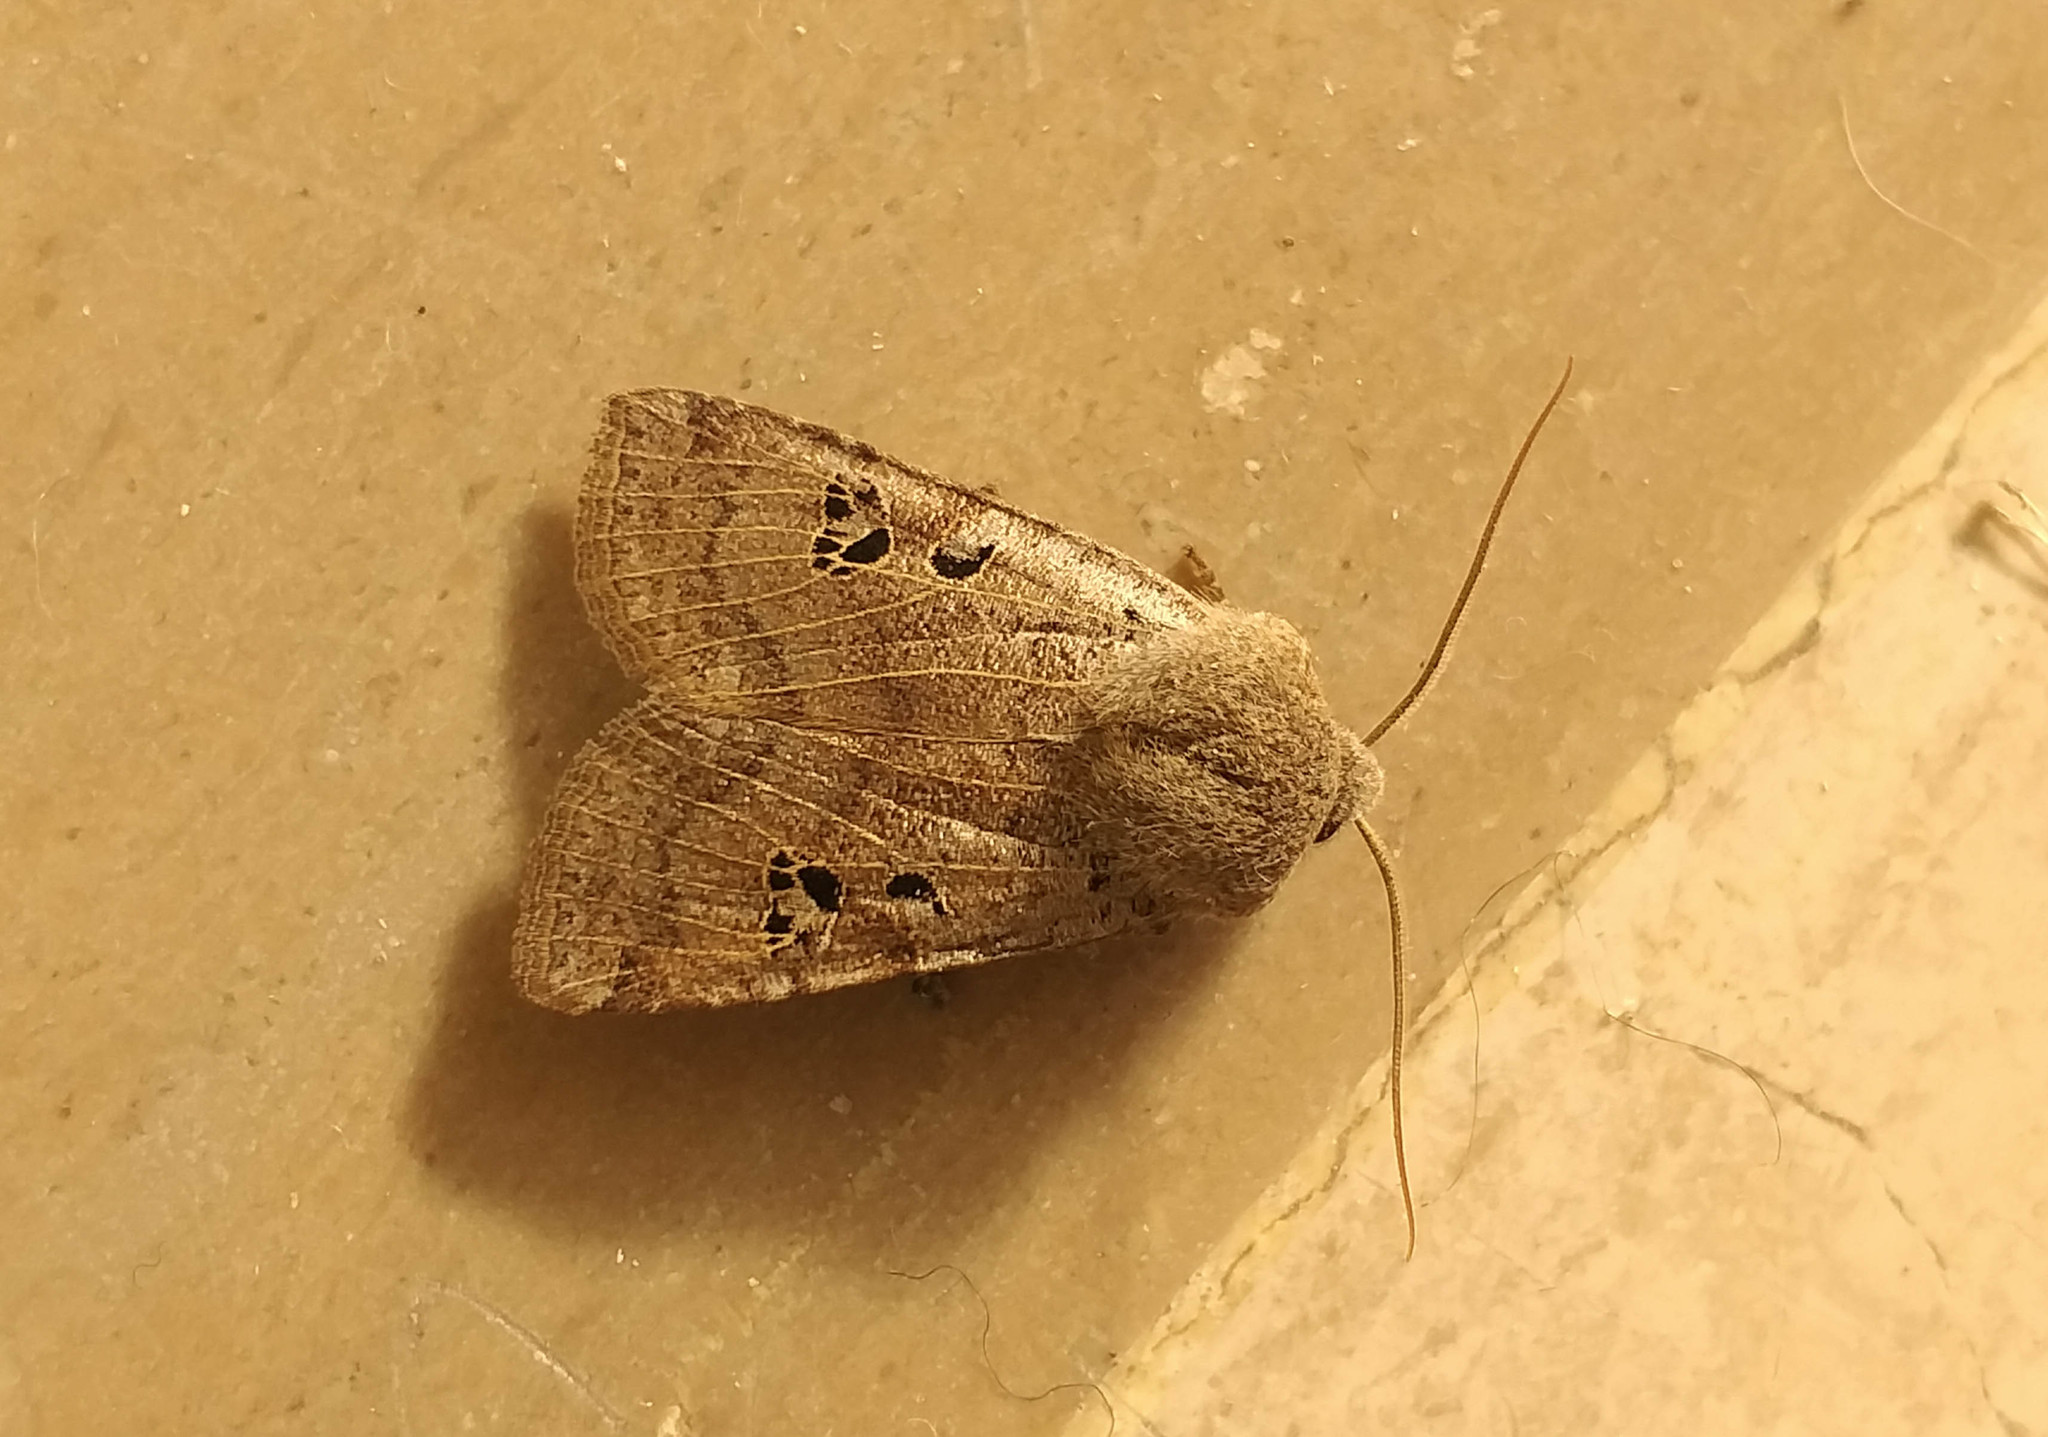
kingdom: Animalia
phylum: Arthropoda
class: Insecta
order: Lepidoptera
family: Noctuidae
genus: Conistra
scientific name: Conistra rubiginosa
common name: Black-spotted chestnut
